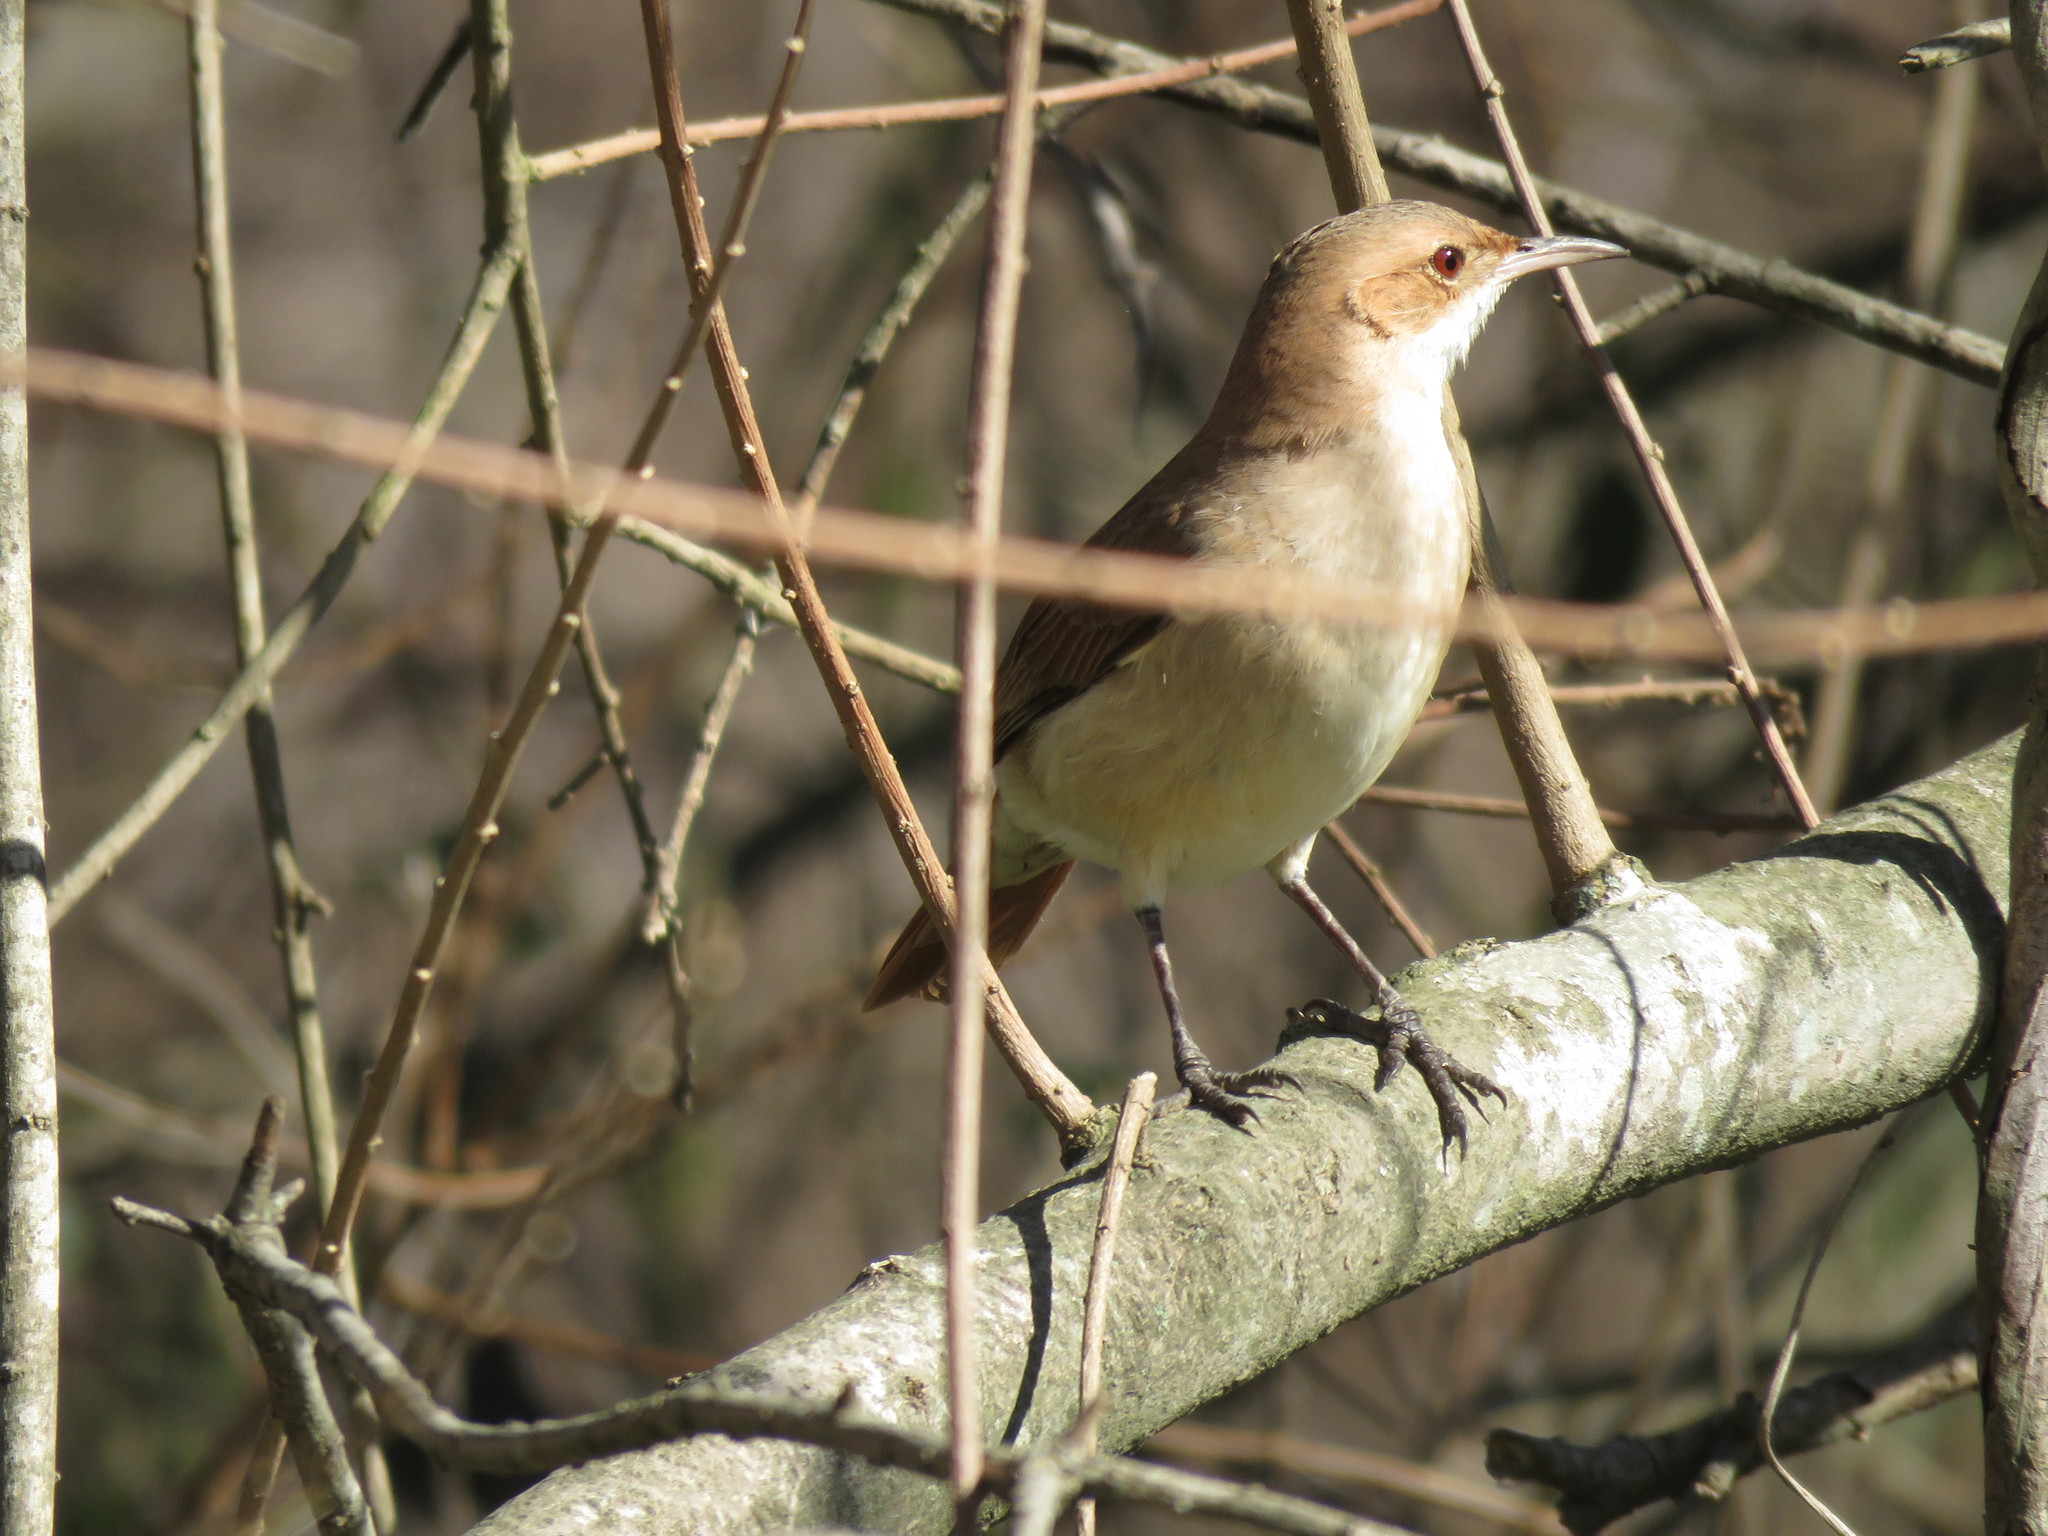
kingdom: Animalia
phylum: Chordata
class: Aves
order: Passeriformes
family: Furnariidae
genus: Furnarius
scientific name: Furnarius rufus
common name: Rufous hornero
